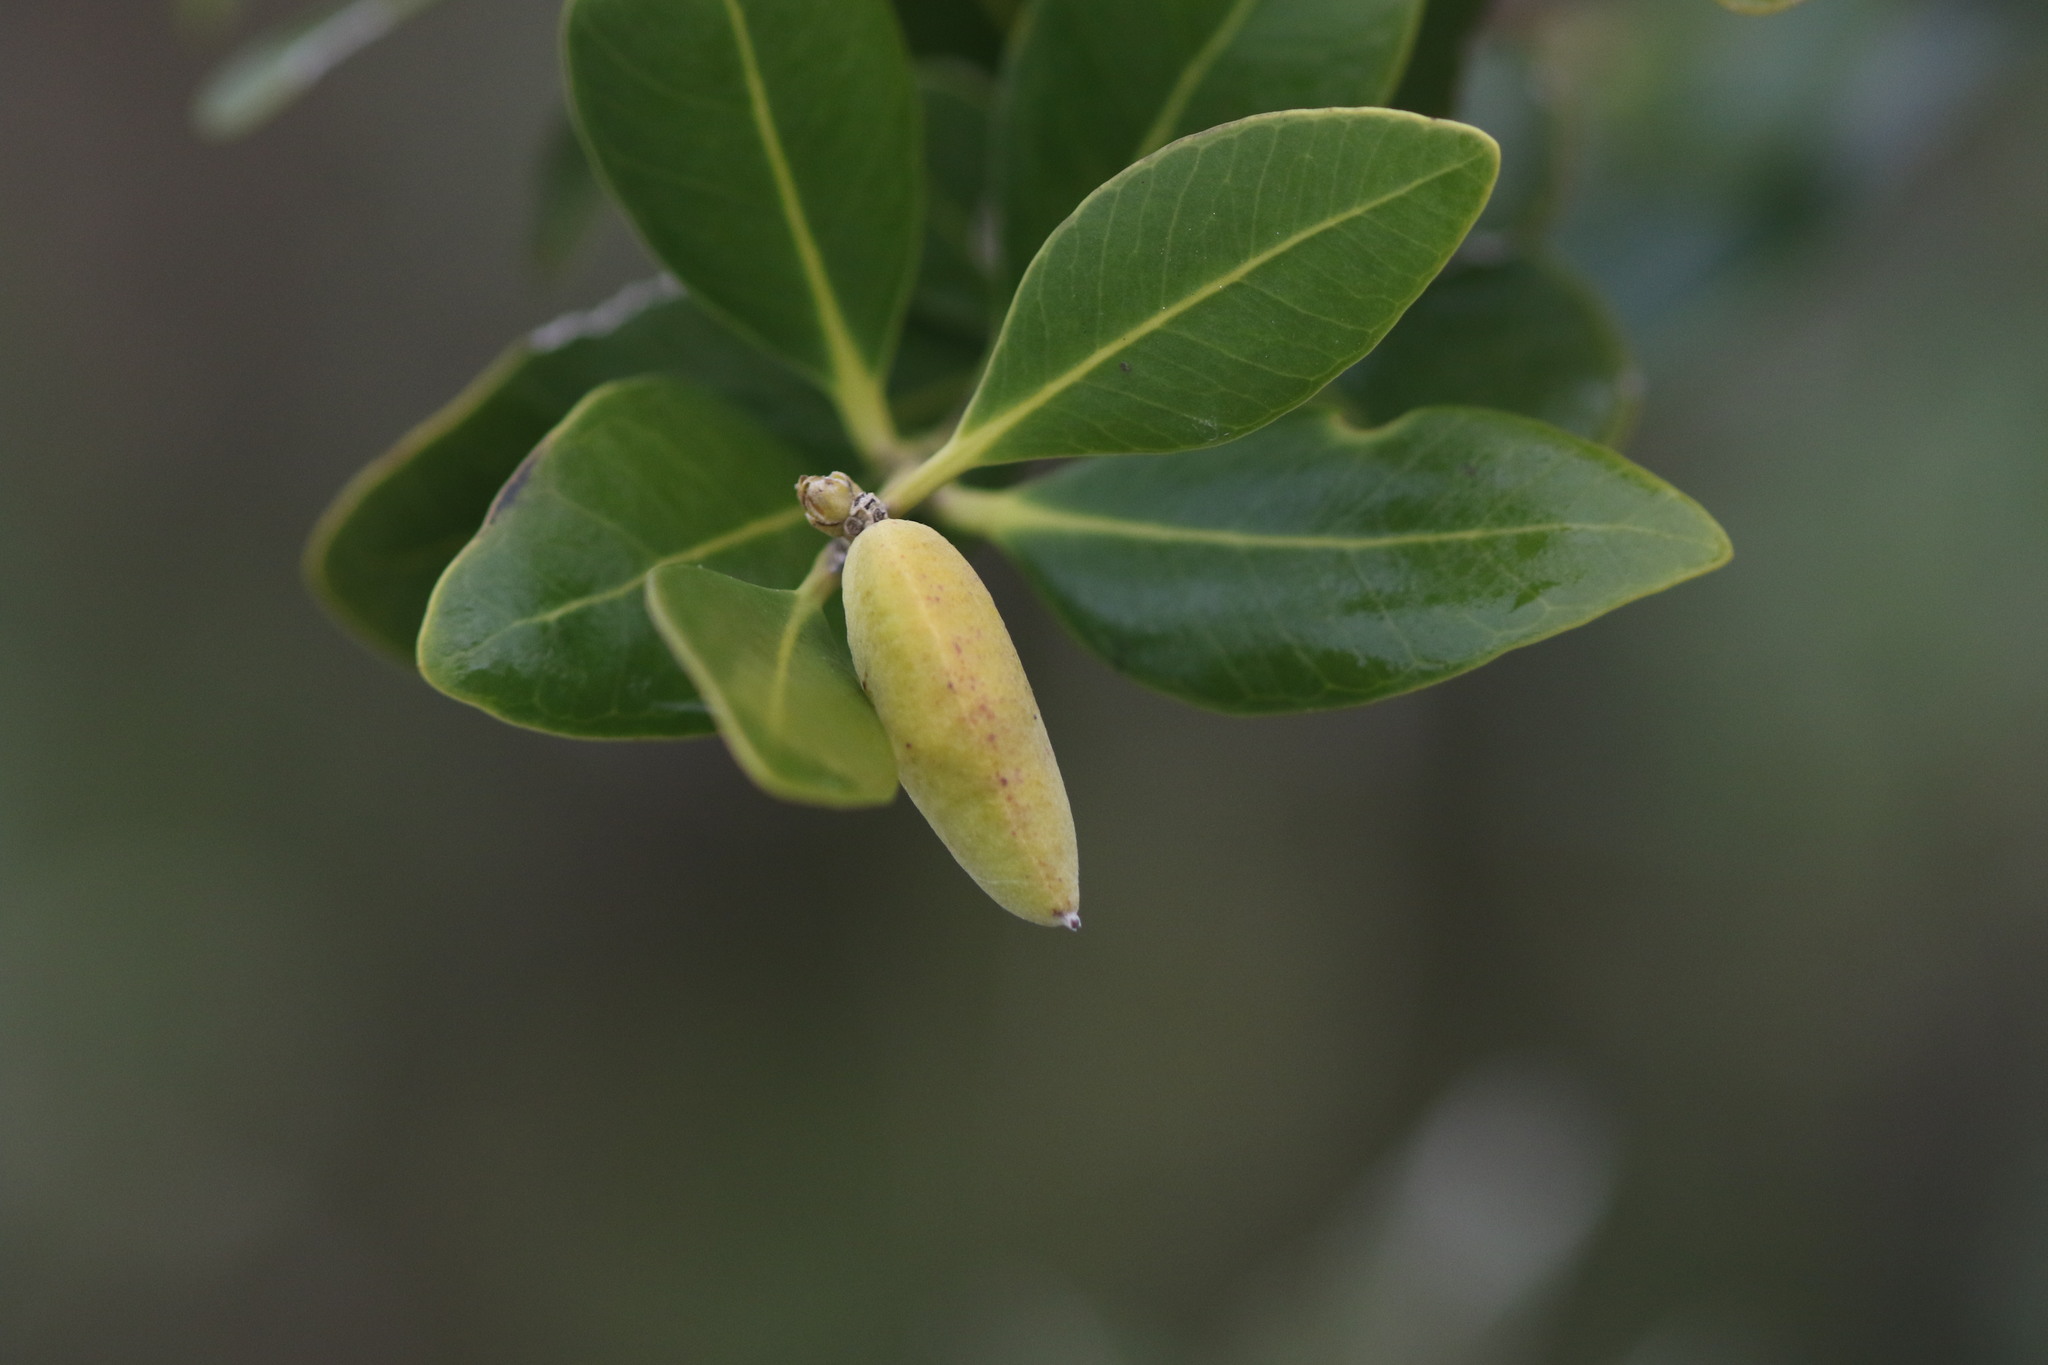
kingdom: Plantae
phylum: Tracheophyta
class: Magnoliopsida
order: Lamiales
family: Acanthaceae
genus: Avicennia
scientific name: Avicennia germinans
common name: Black mangrove
